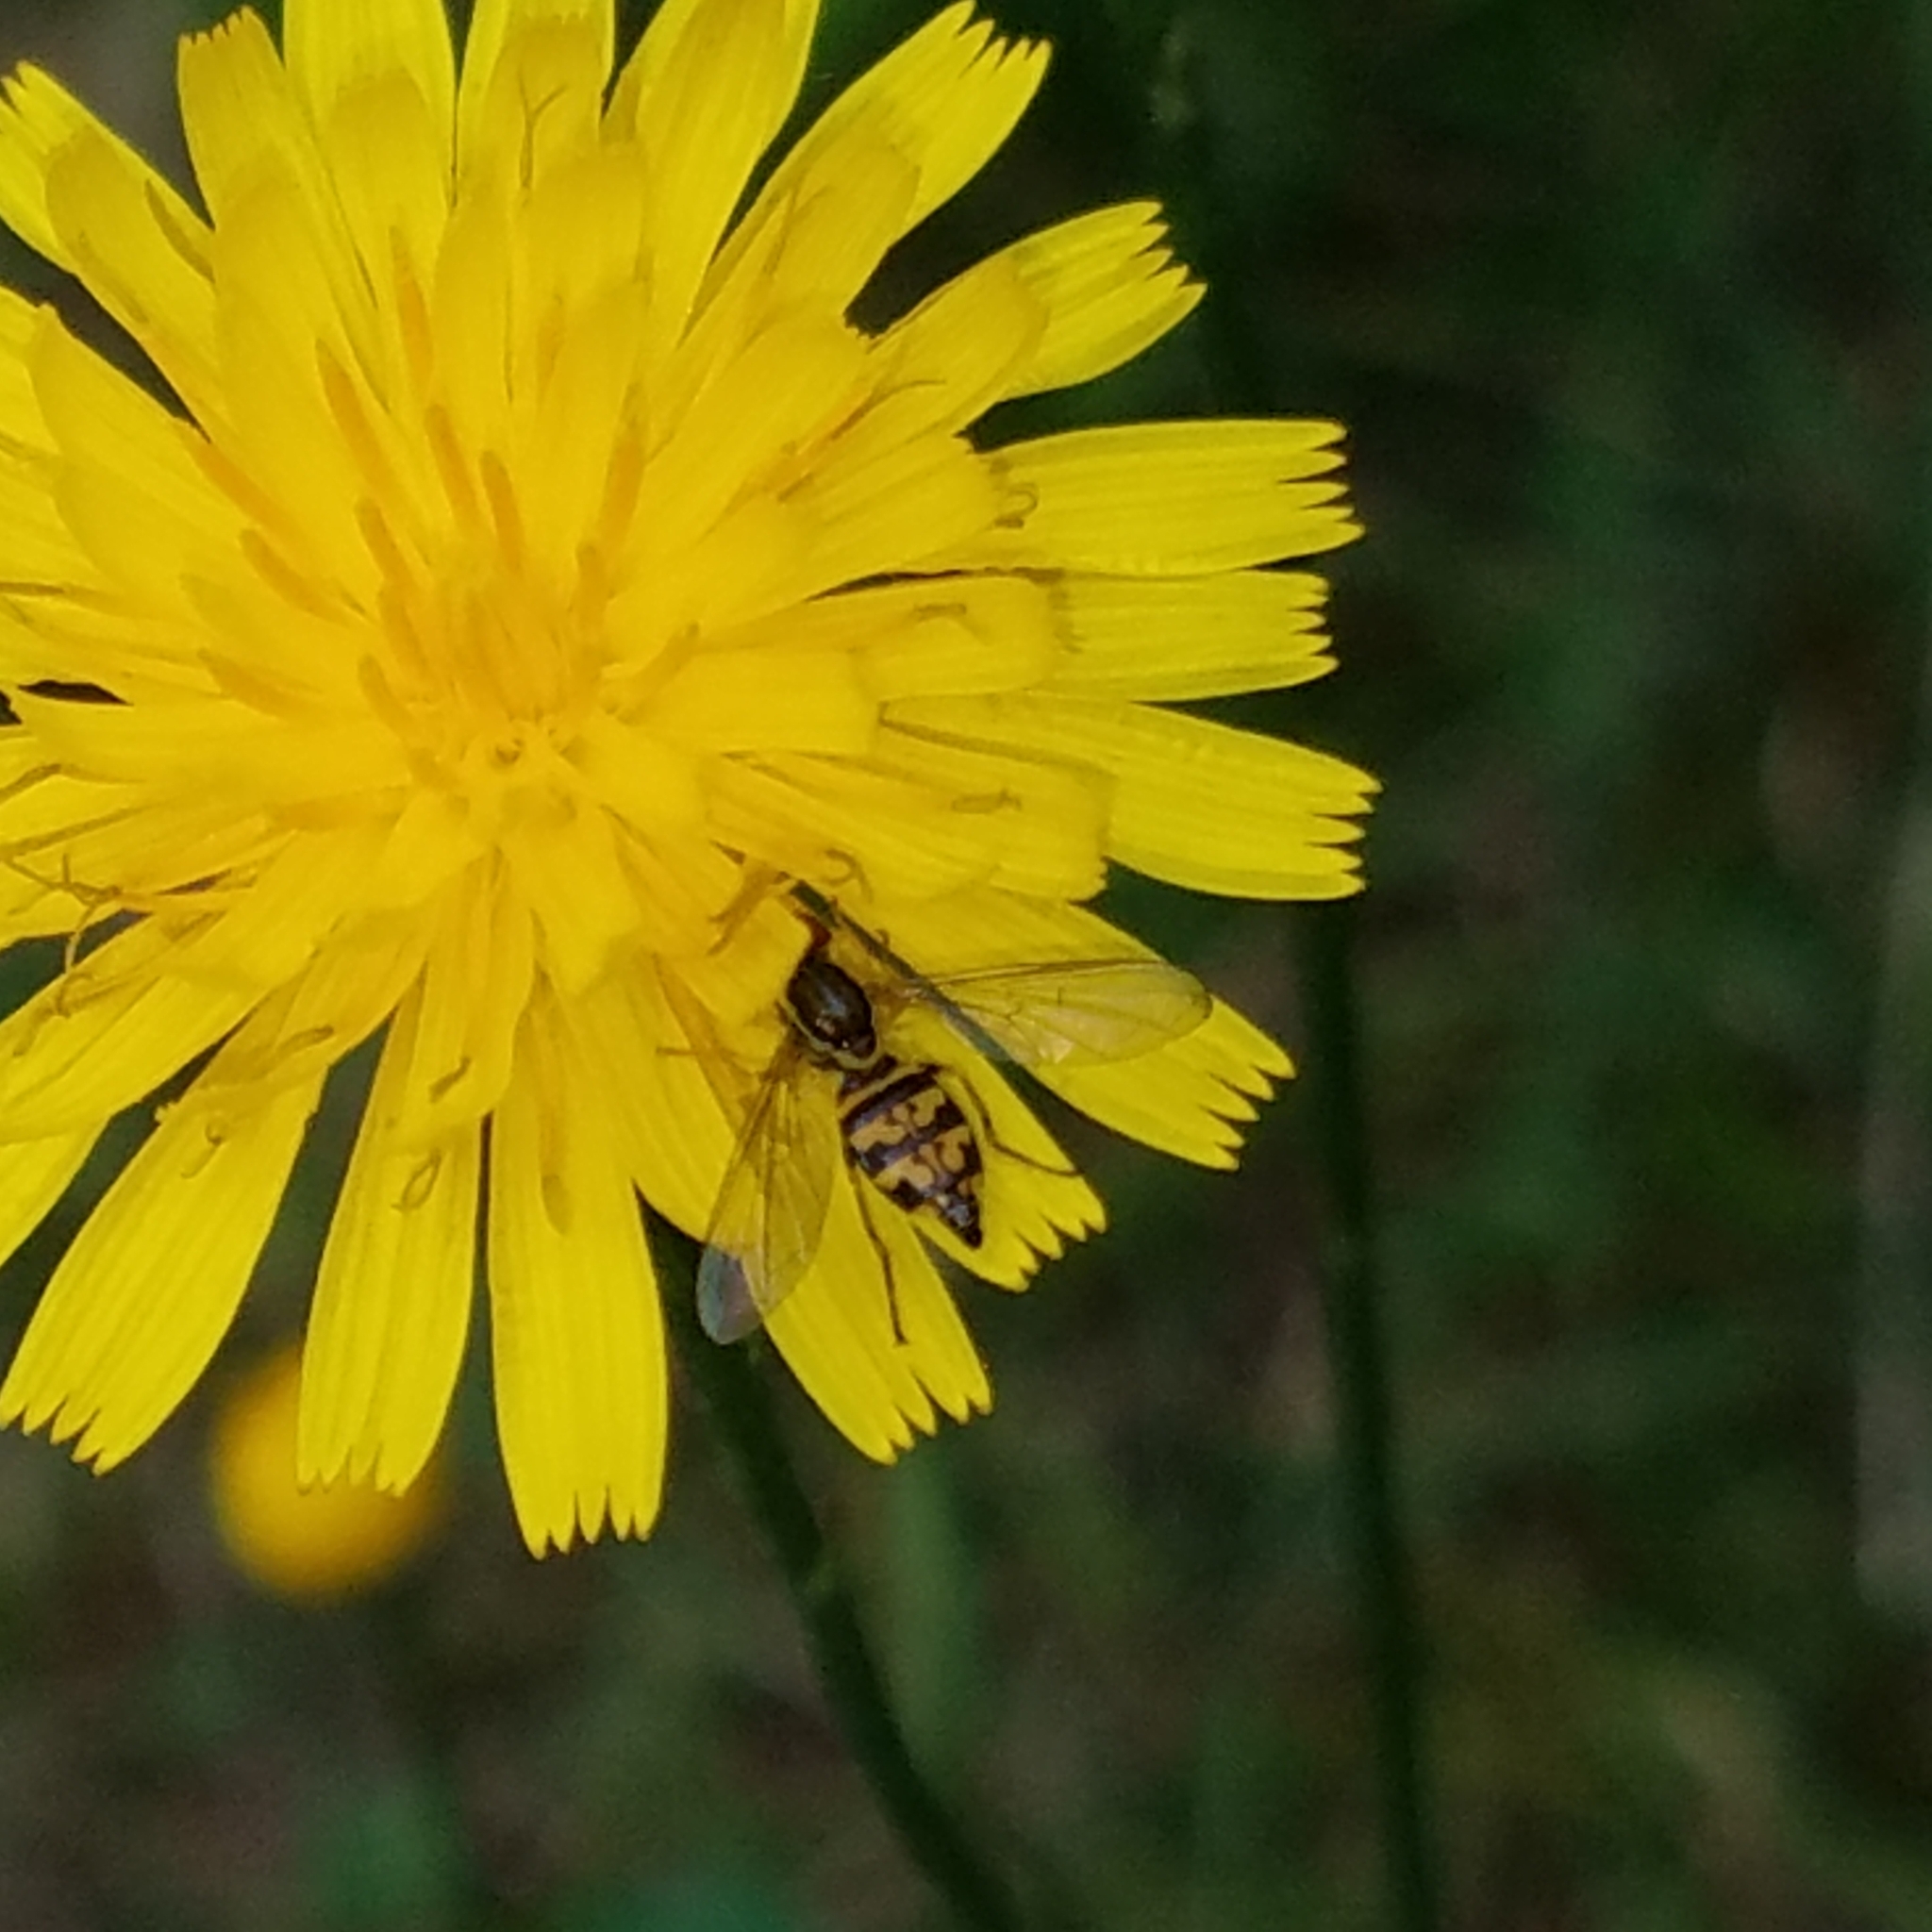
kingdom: Animalia
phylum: Arthropoda
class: Insecta
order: Diptera
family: Syrphidae
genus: Toxomerus
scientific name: Toxomerus geminatus
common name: Eastern calligrapher
